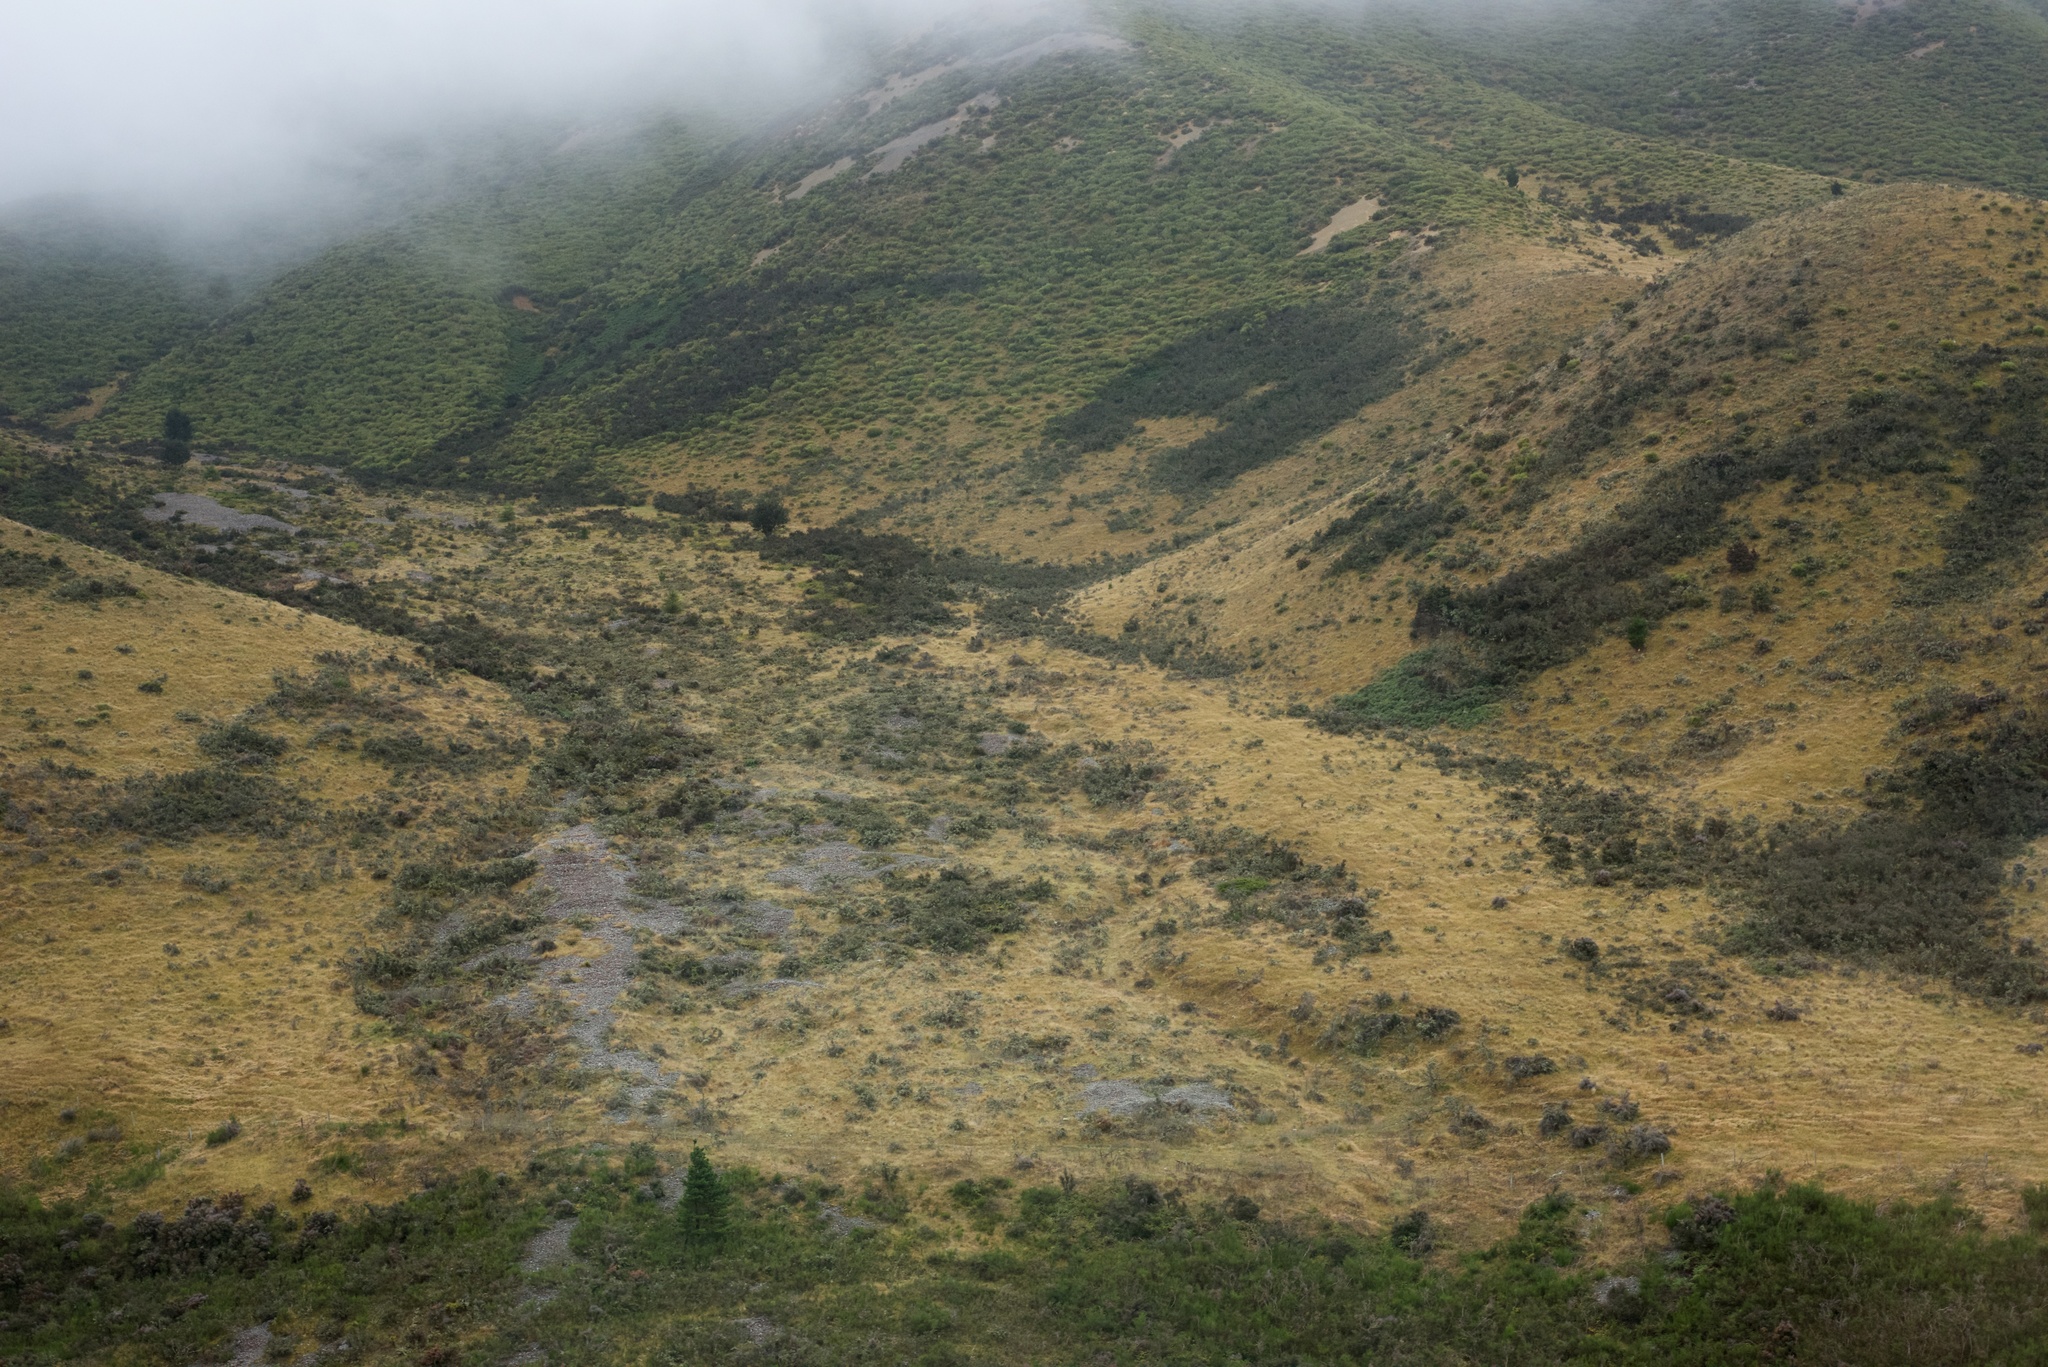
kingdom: Plantae
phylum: Tracheophyta
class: Magnoliopsida
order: Fabales
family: Fabaceae
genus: Cytisus
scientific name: Cytisus scoparius
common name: Scotch broom
